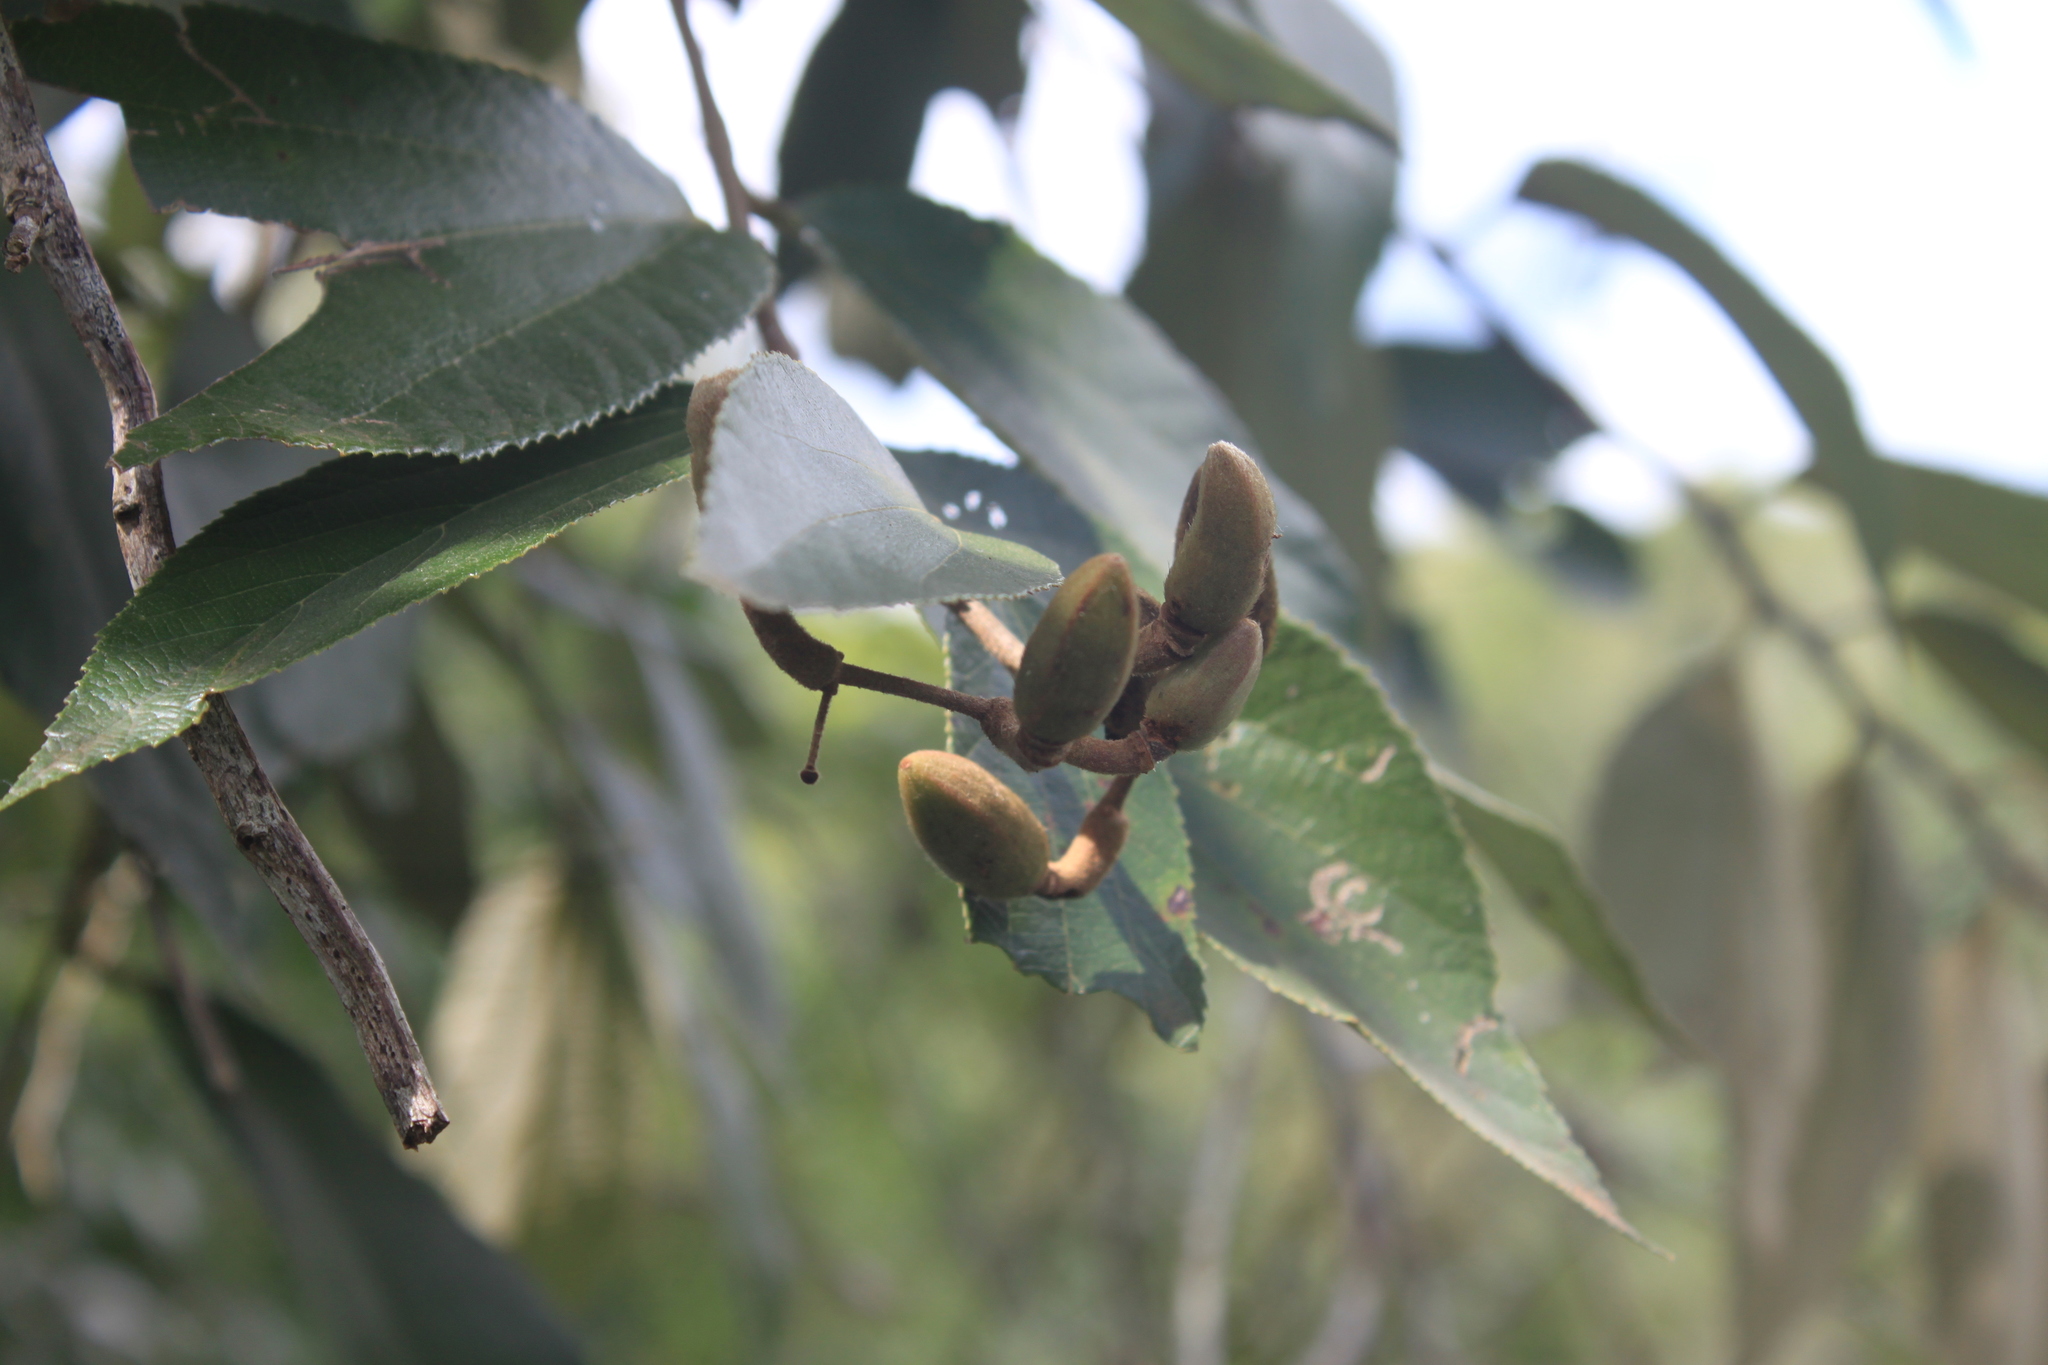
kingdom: Plantae
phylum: Tracheophyta
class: Magnoliopsida
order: Malvales
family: Malvaceae
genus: Luehea
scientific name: Luehea divaricata
